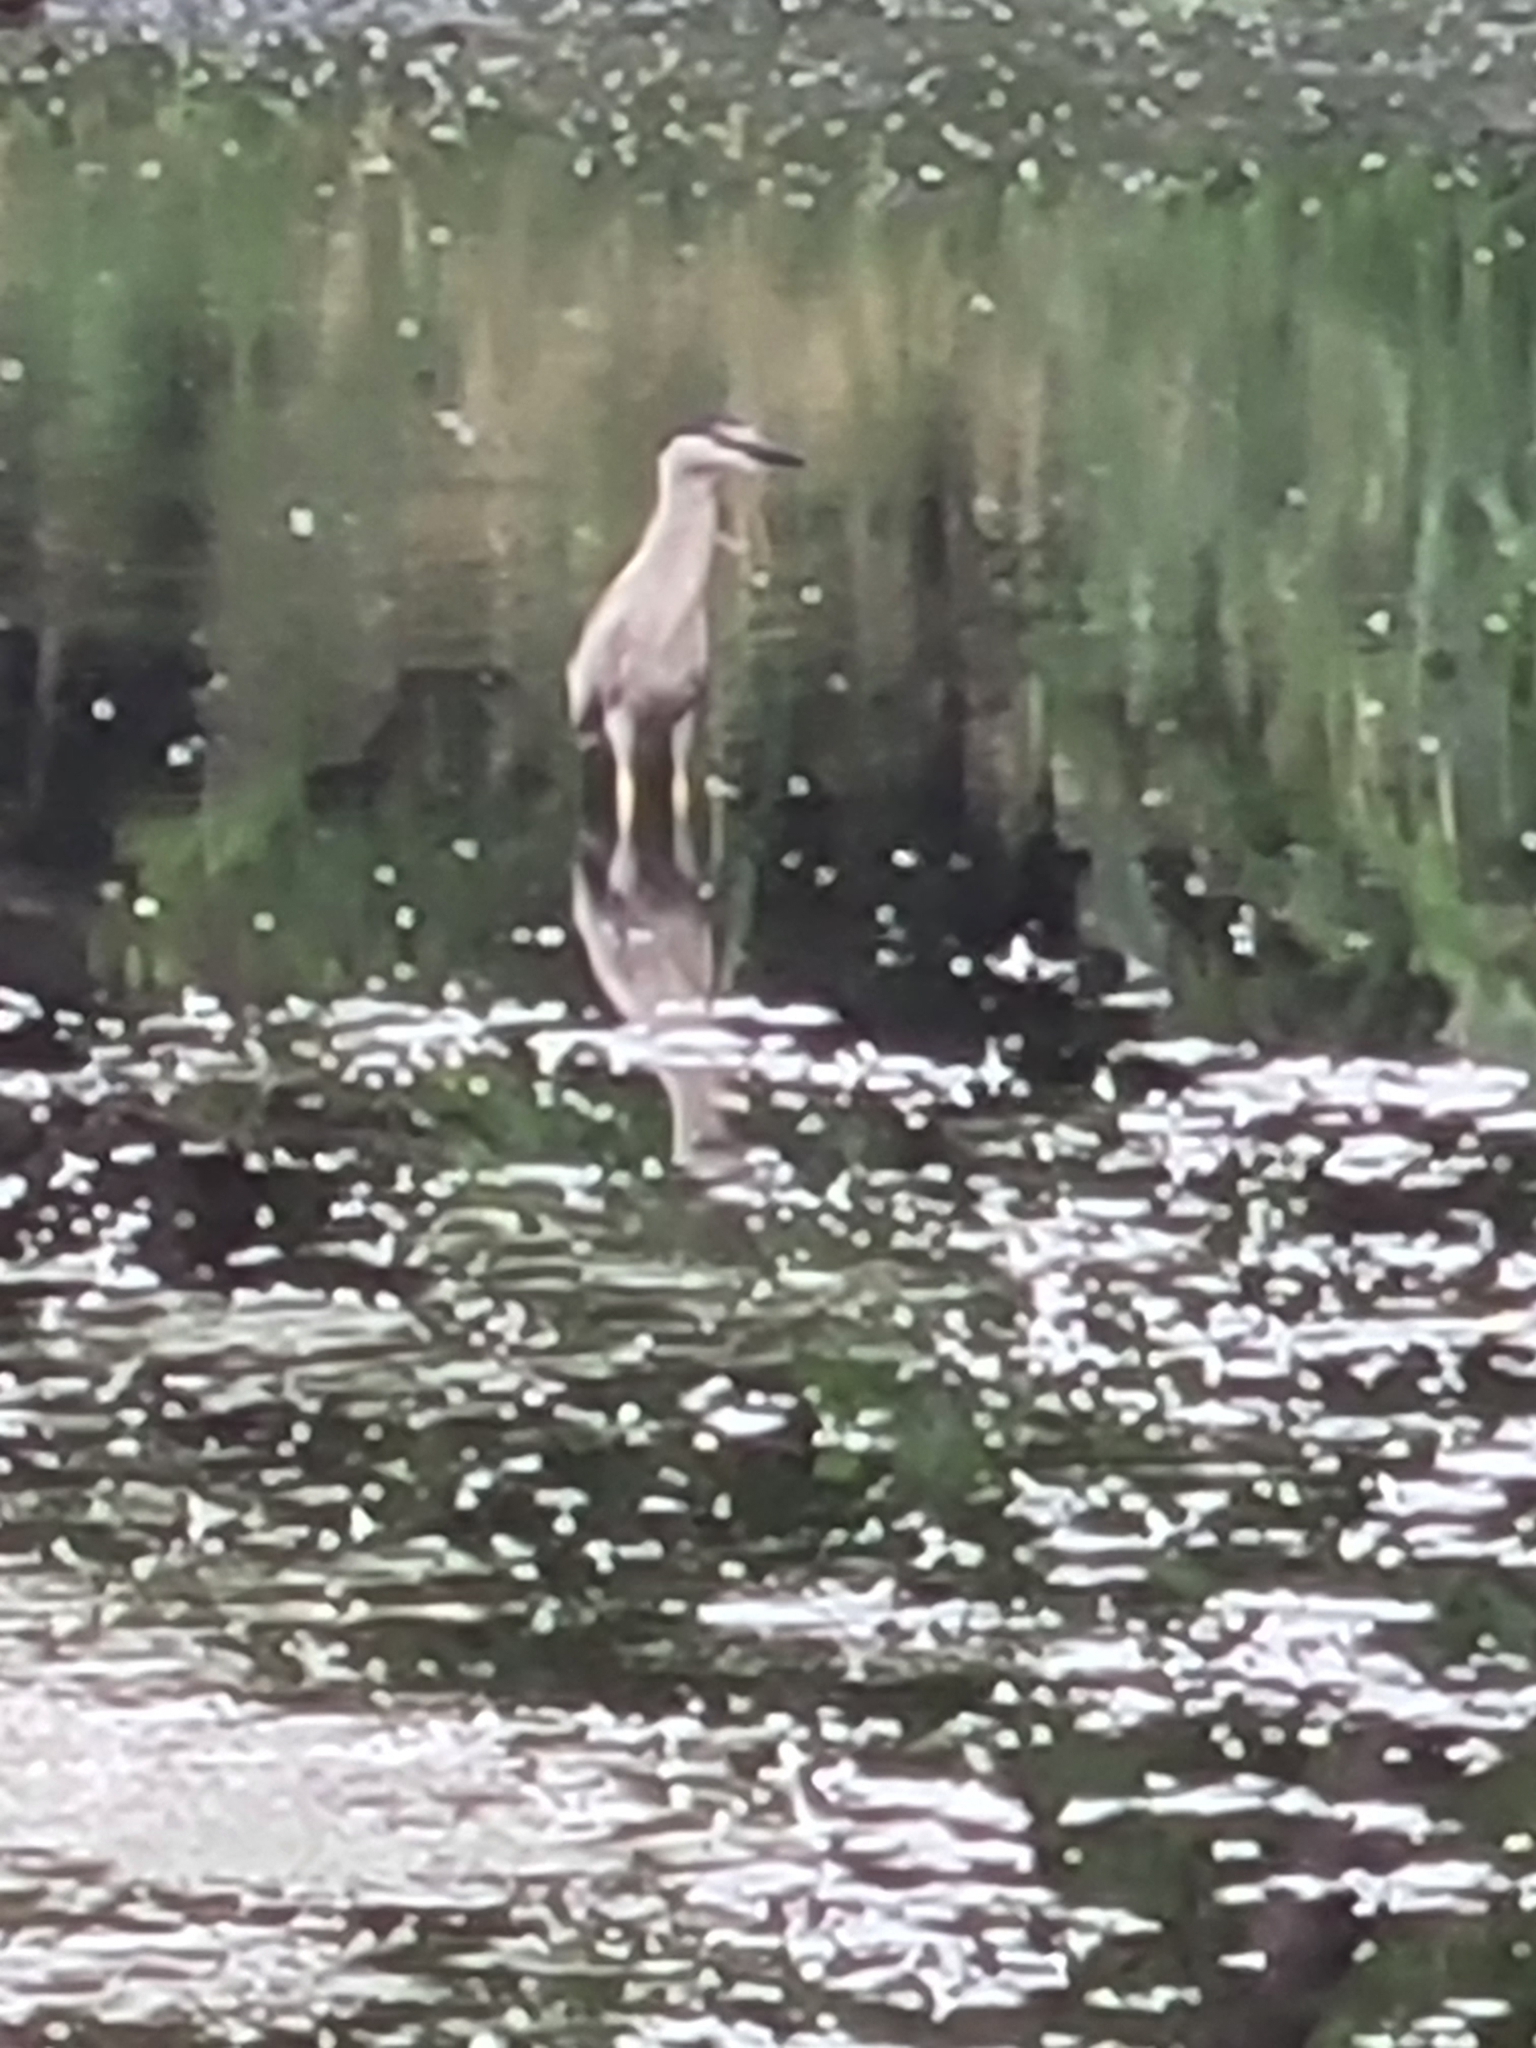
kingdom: Animalia
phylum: Chordata
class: Aves
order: Pelecaniformes
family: Ardeidae
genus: Nycticorax
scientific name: Nycticorax nycticorax
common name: Black-crowned night heron
